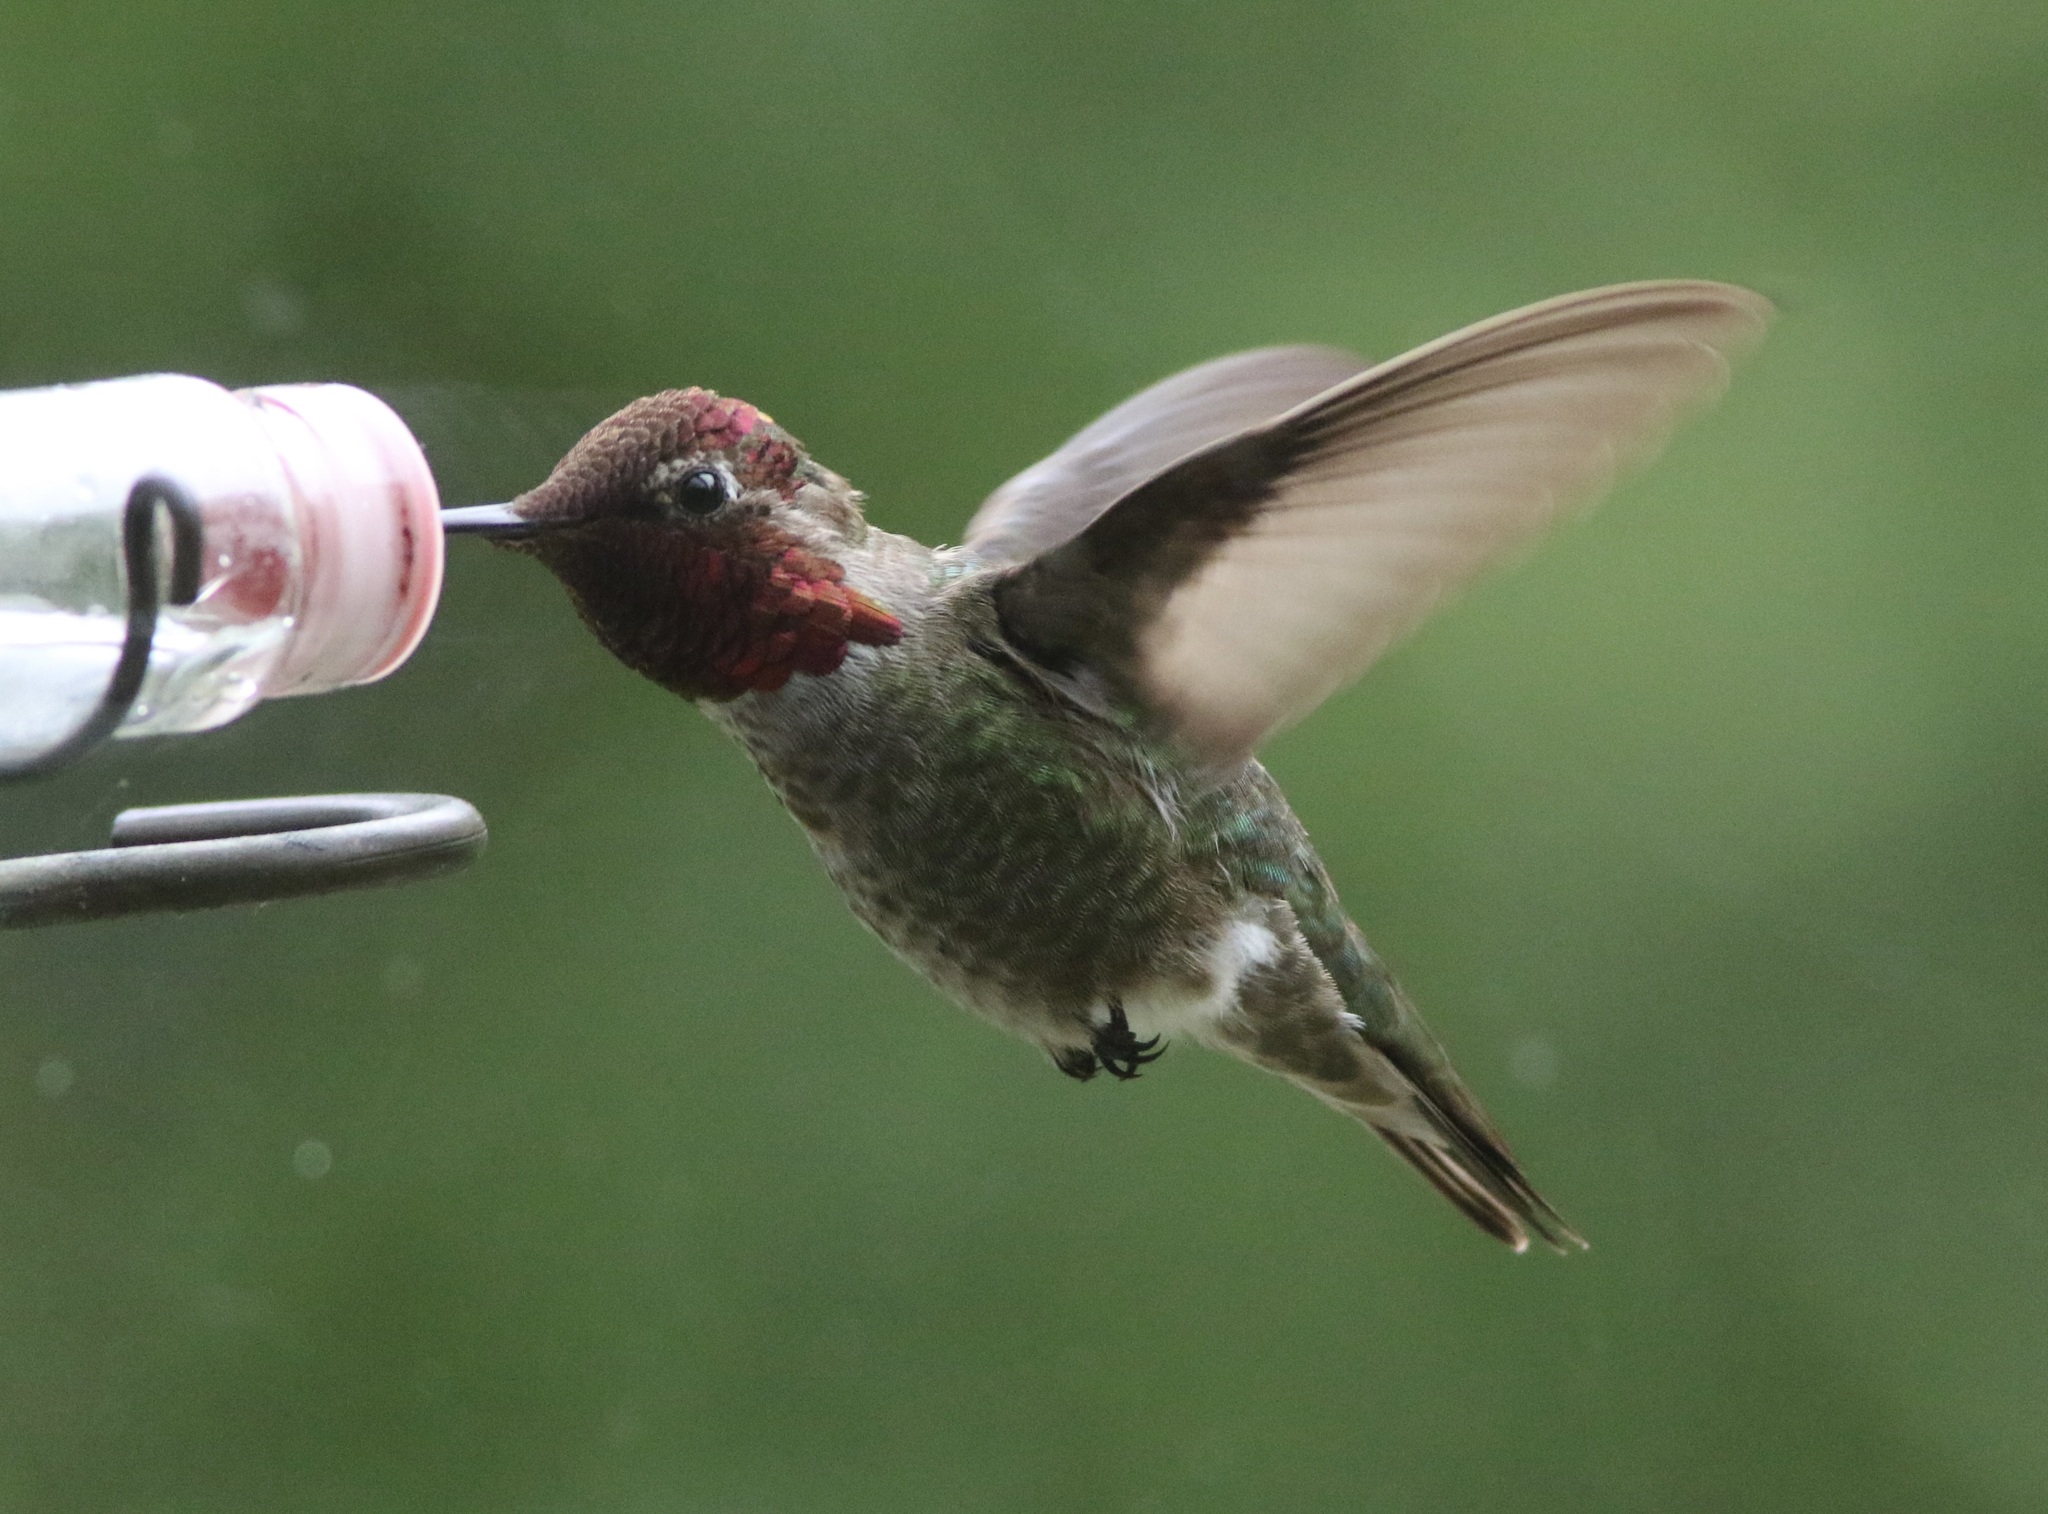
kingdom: Animalia
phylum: Chordata
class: Aves
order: Apodiformes
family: Trochilidae
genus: Calypte
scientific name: Calypte anna
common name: Anna's hummingbird
